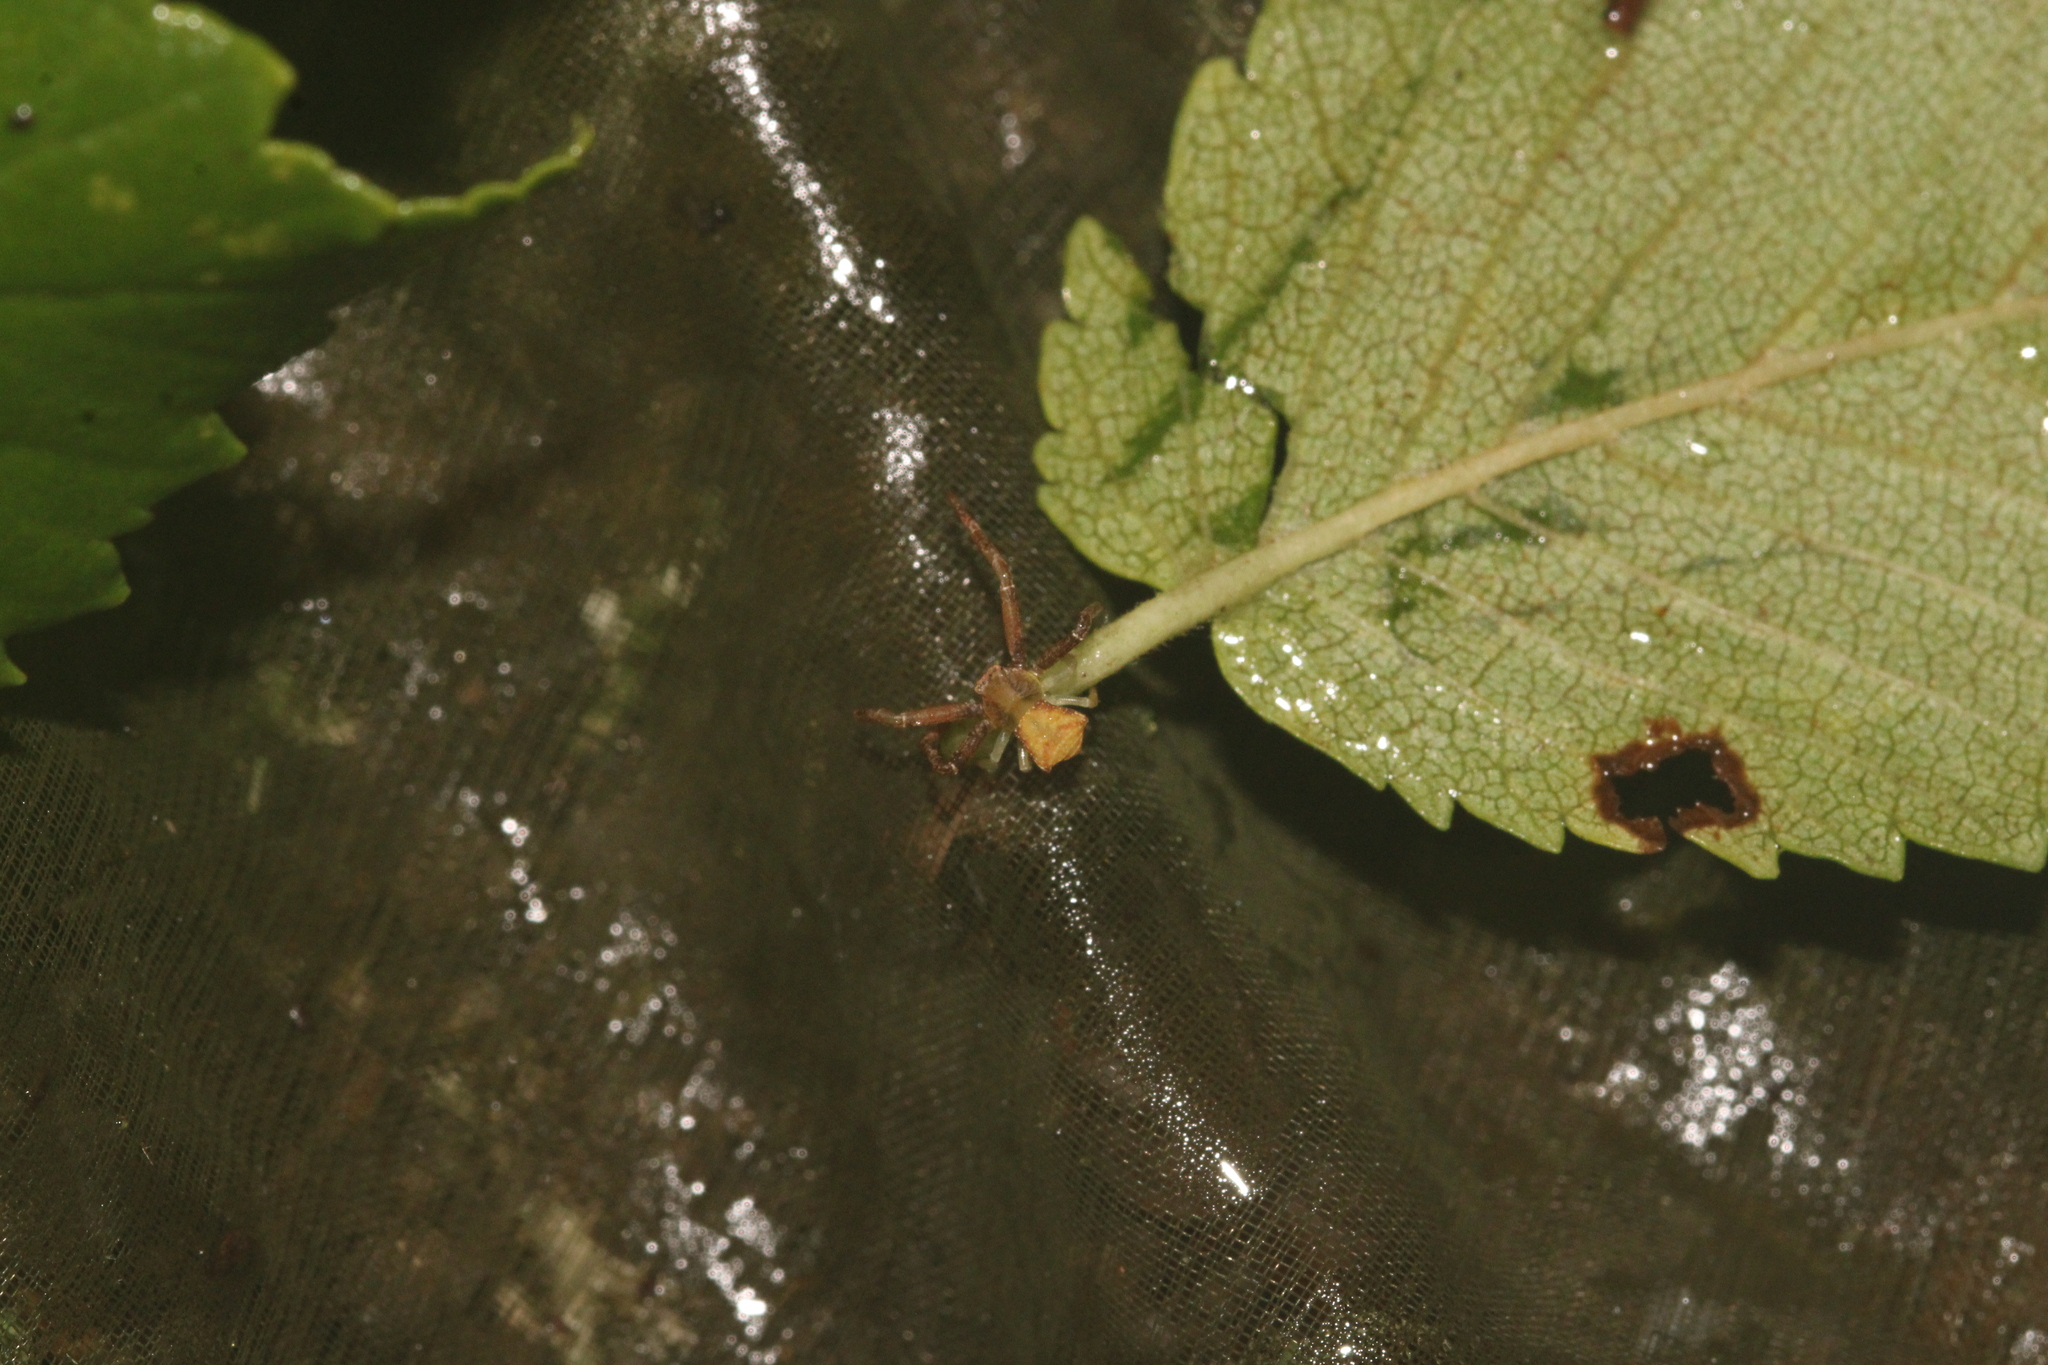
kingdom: Animalia
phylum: Arthropoda
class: Arachnida
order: Araneae
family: Thomisidae
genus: Pistius
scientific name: Pistius truncatus
